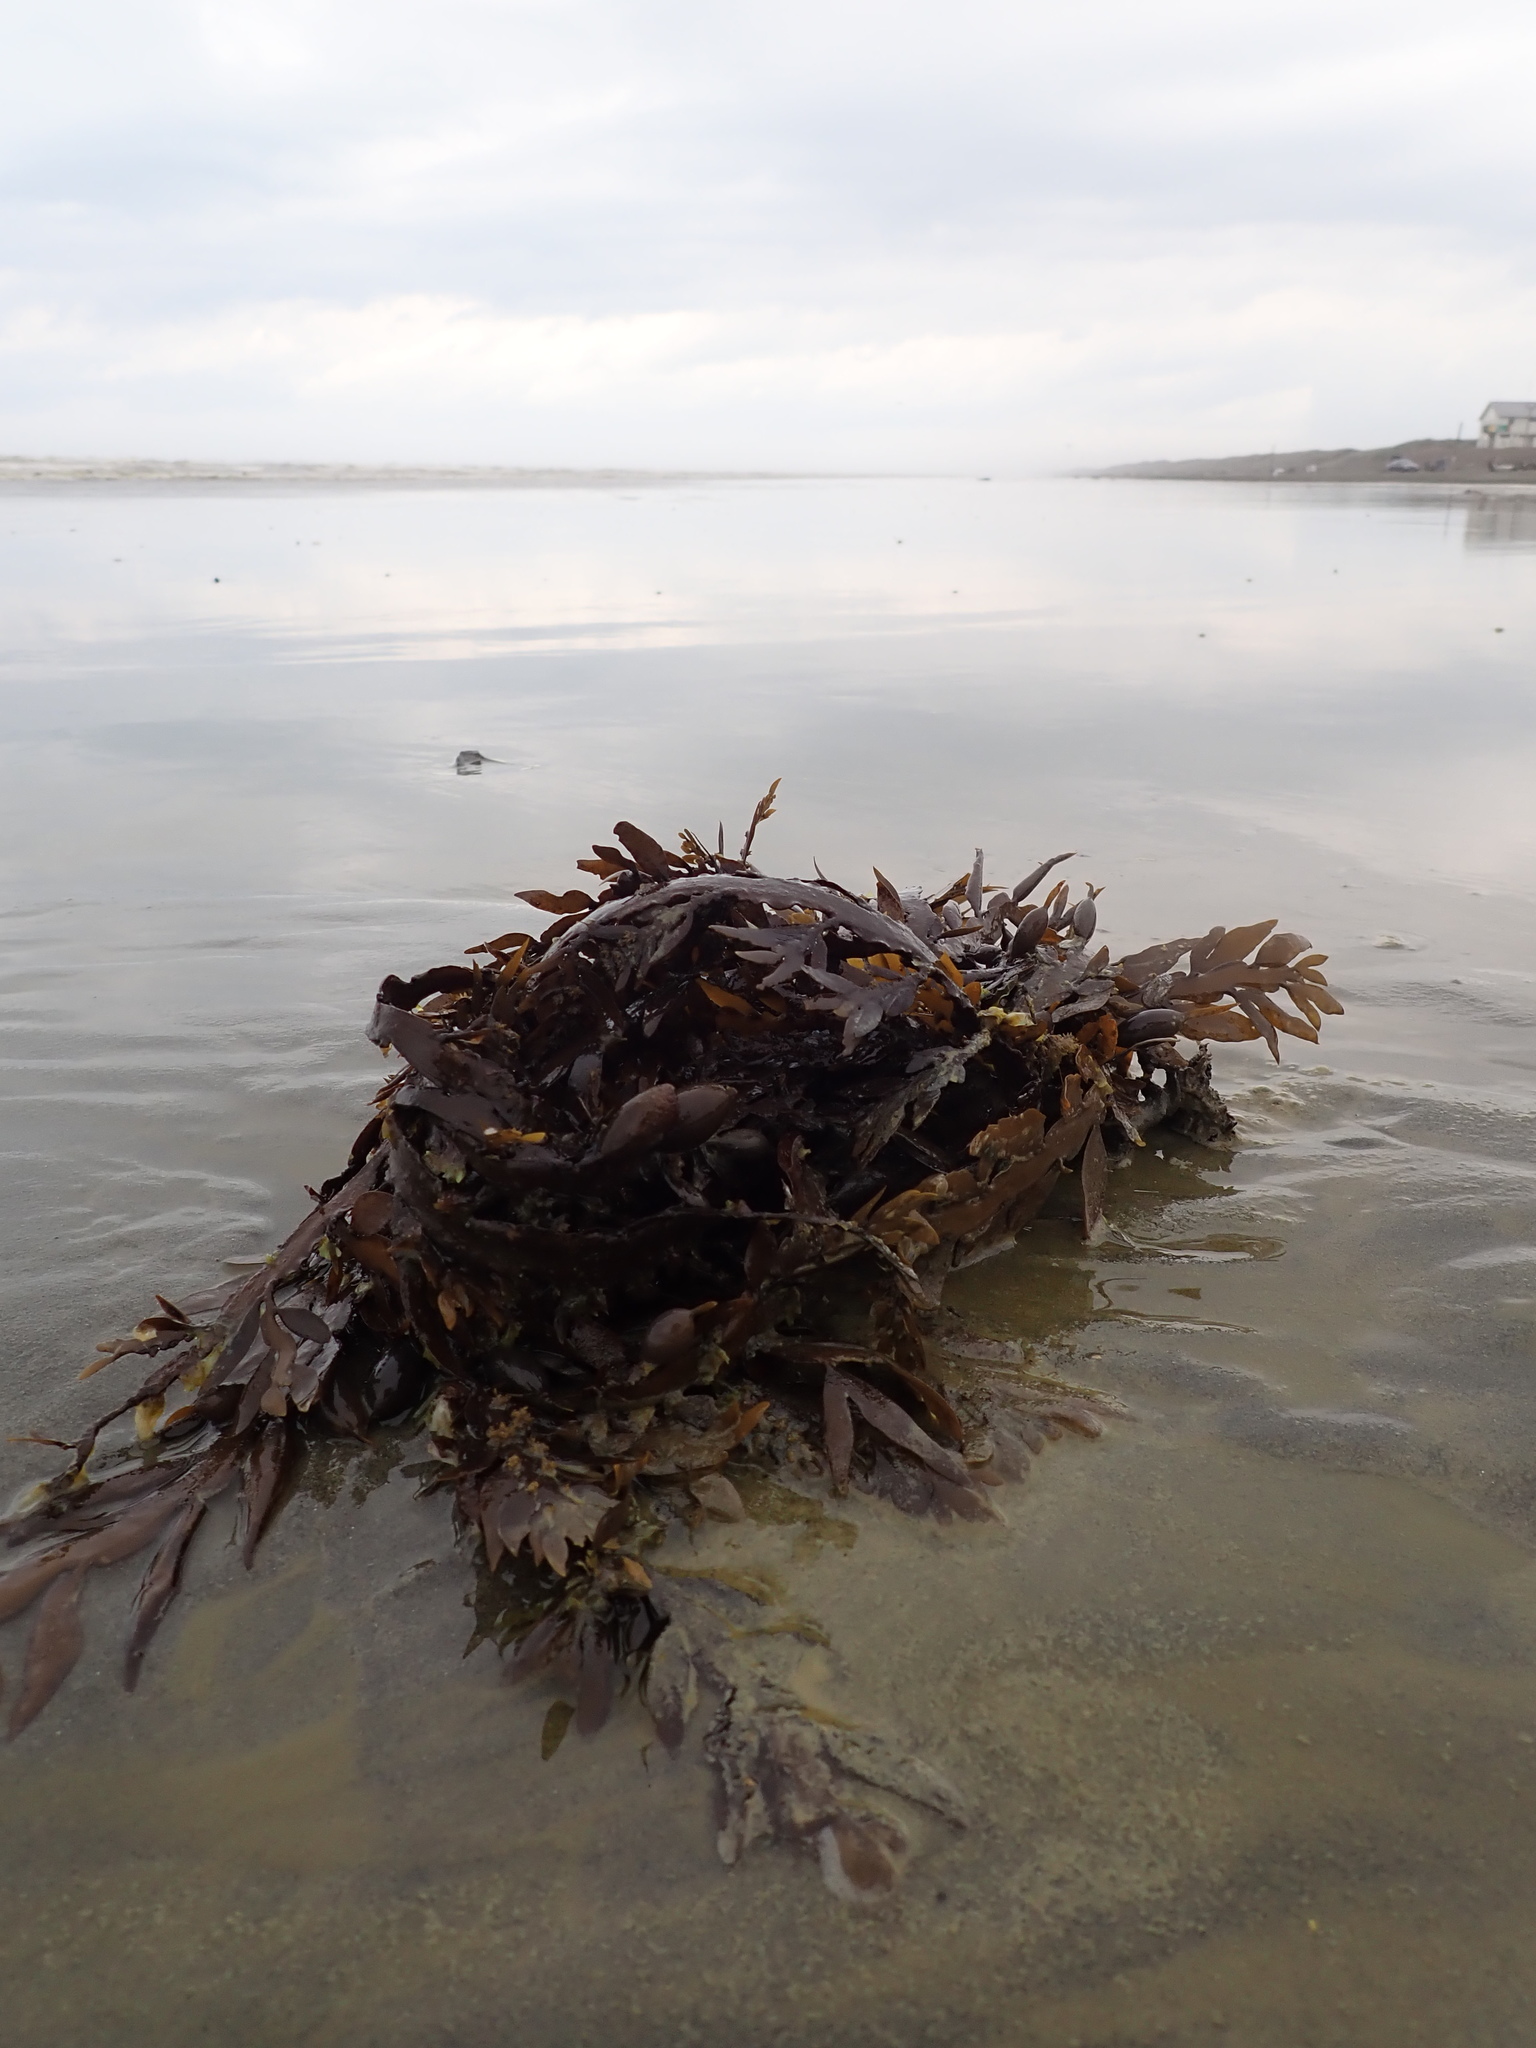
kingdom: Chromista
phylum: Ochrophyta
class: Phaeophyceae
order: Fucales
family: Sargassaceae
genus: Carpophyllum
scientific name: Carpophyllum maschalocarpum
